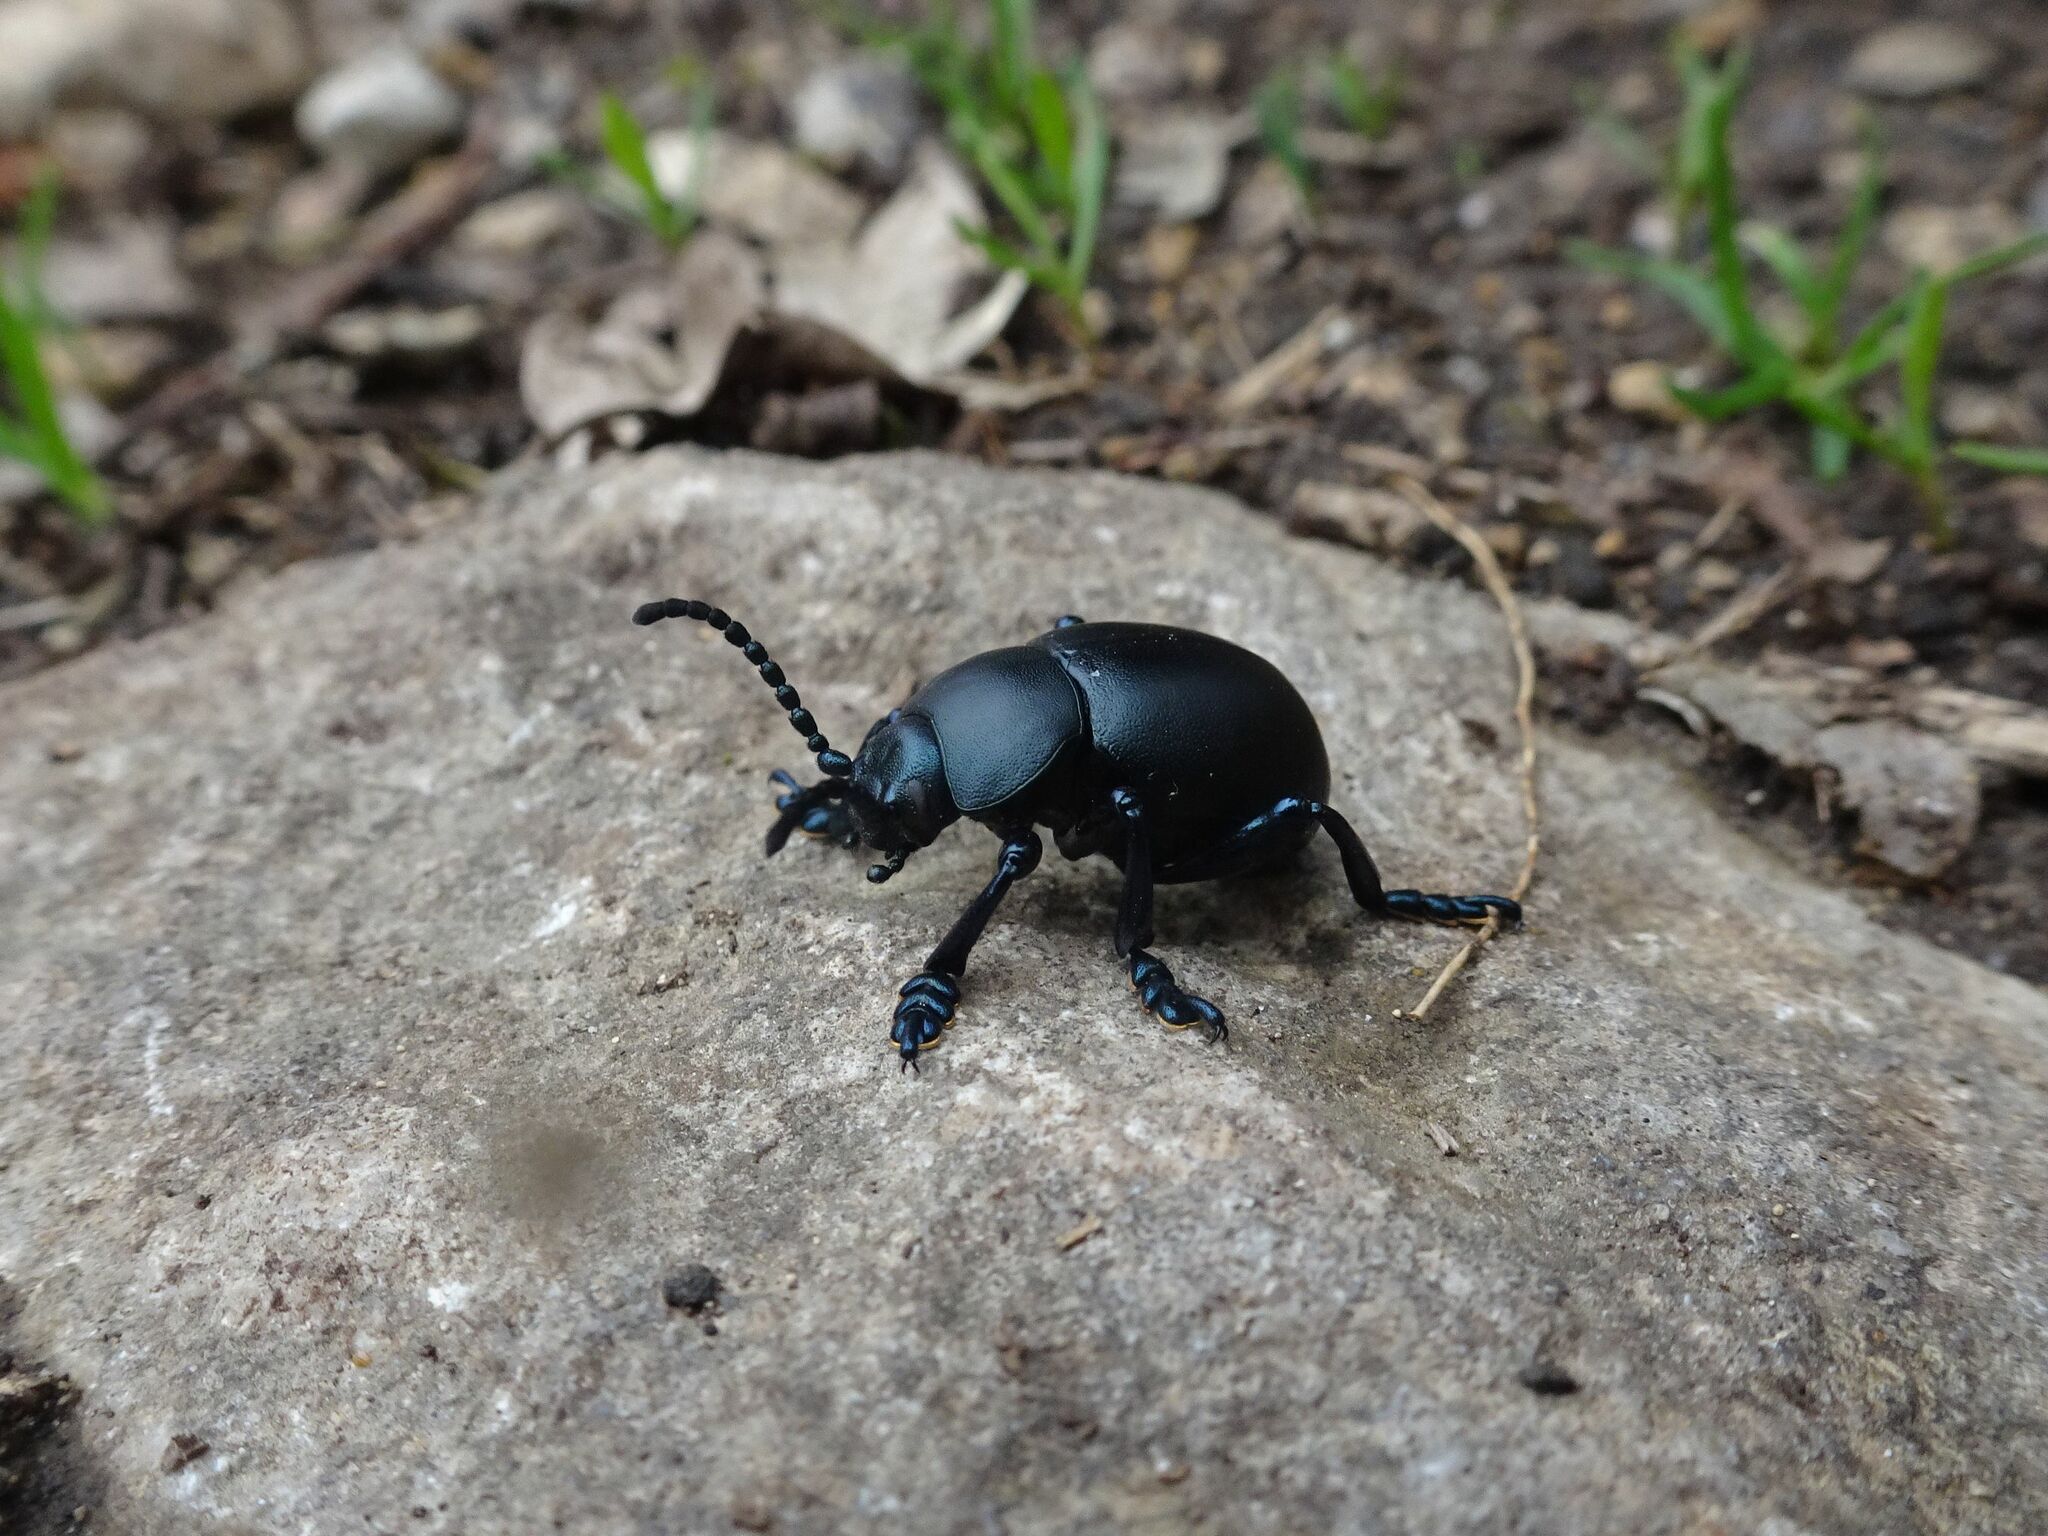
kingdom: Animalia
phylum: Arthropoda
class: Insecta
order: Coleoptera
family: Chrysomelidae
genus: Timarcha
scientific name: Timarcha tenebricosa
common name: Bloody-nosed beetle
